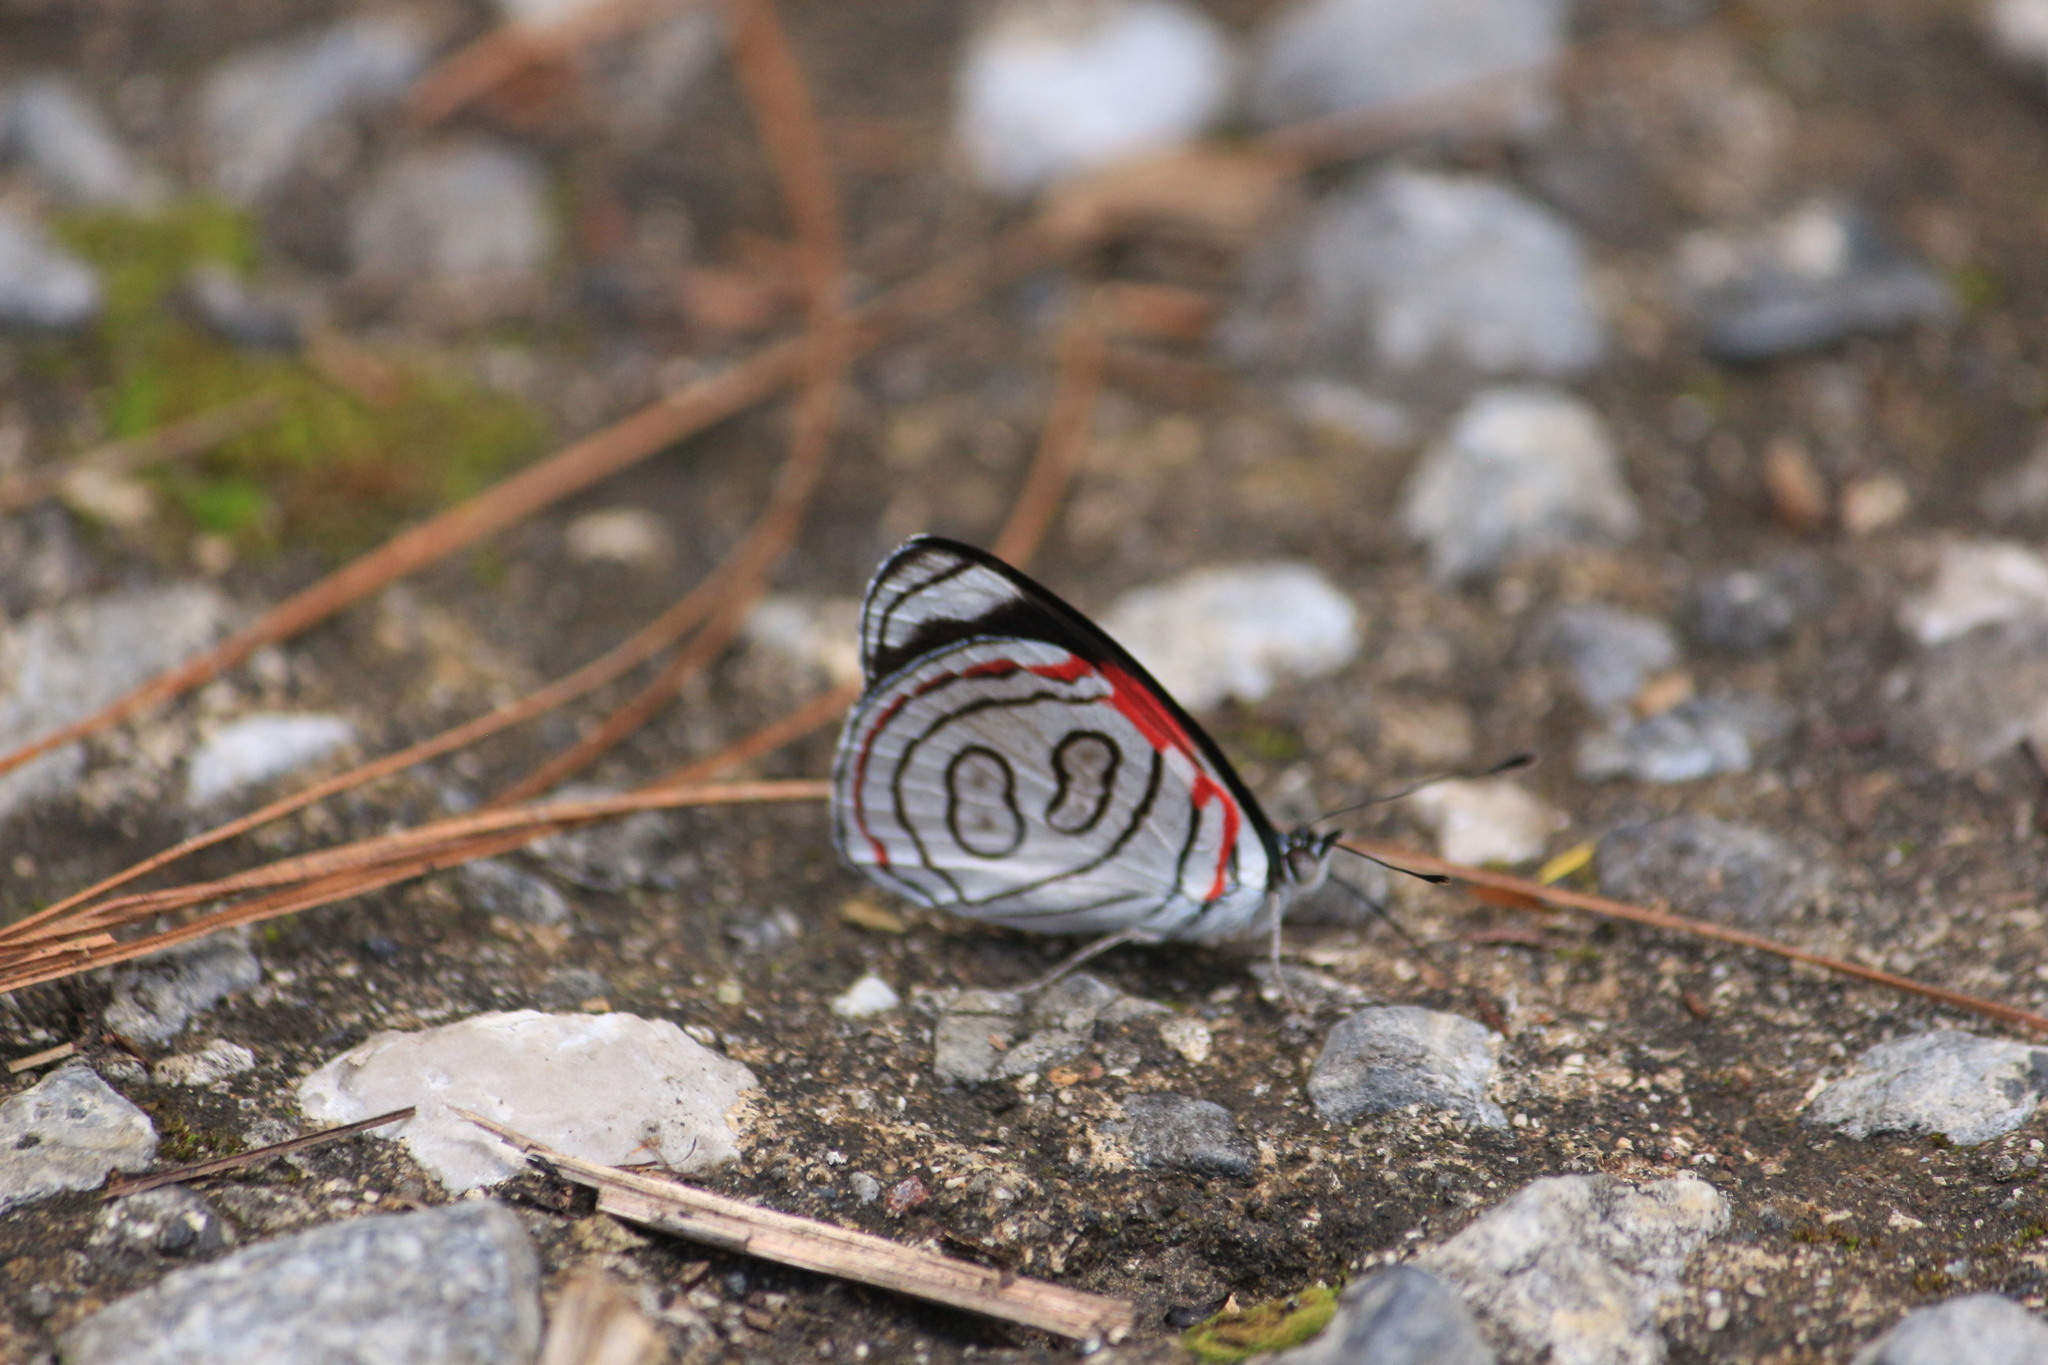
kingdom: Animalia
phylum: Arthropoda
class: Insecta
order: Lepidoptera
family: Nymphalidae
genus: Diaethria
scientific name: Diaethria astala
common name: Navy eighty-eight
